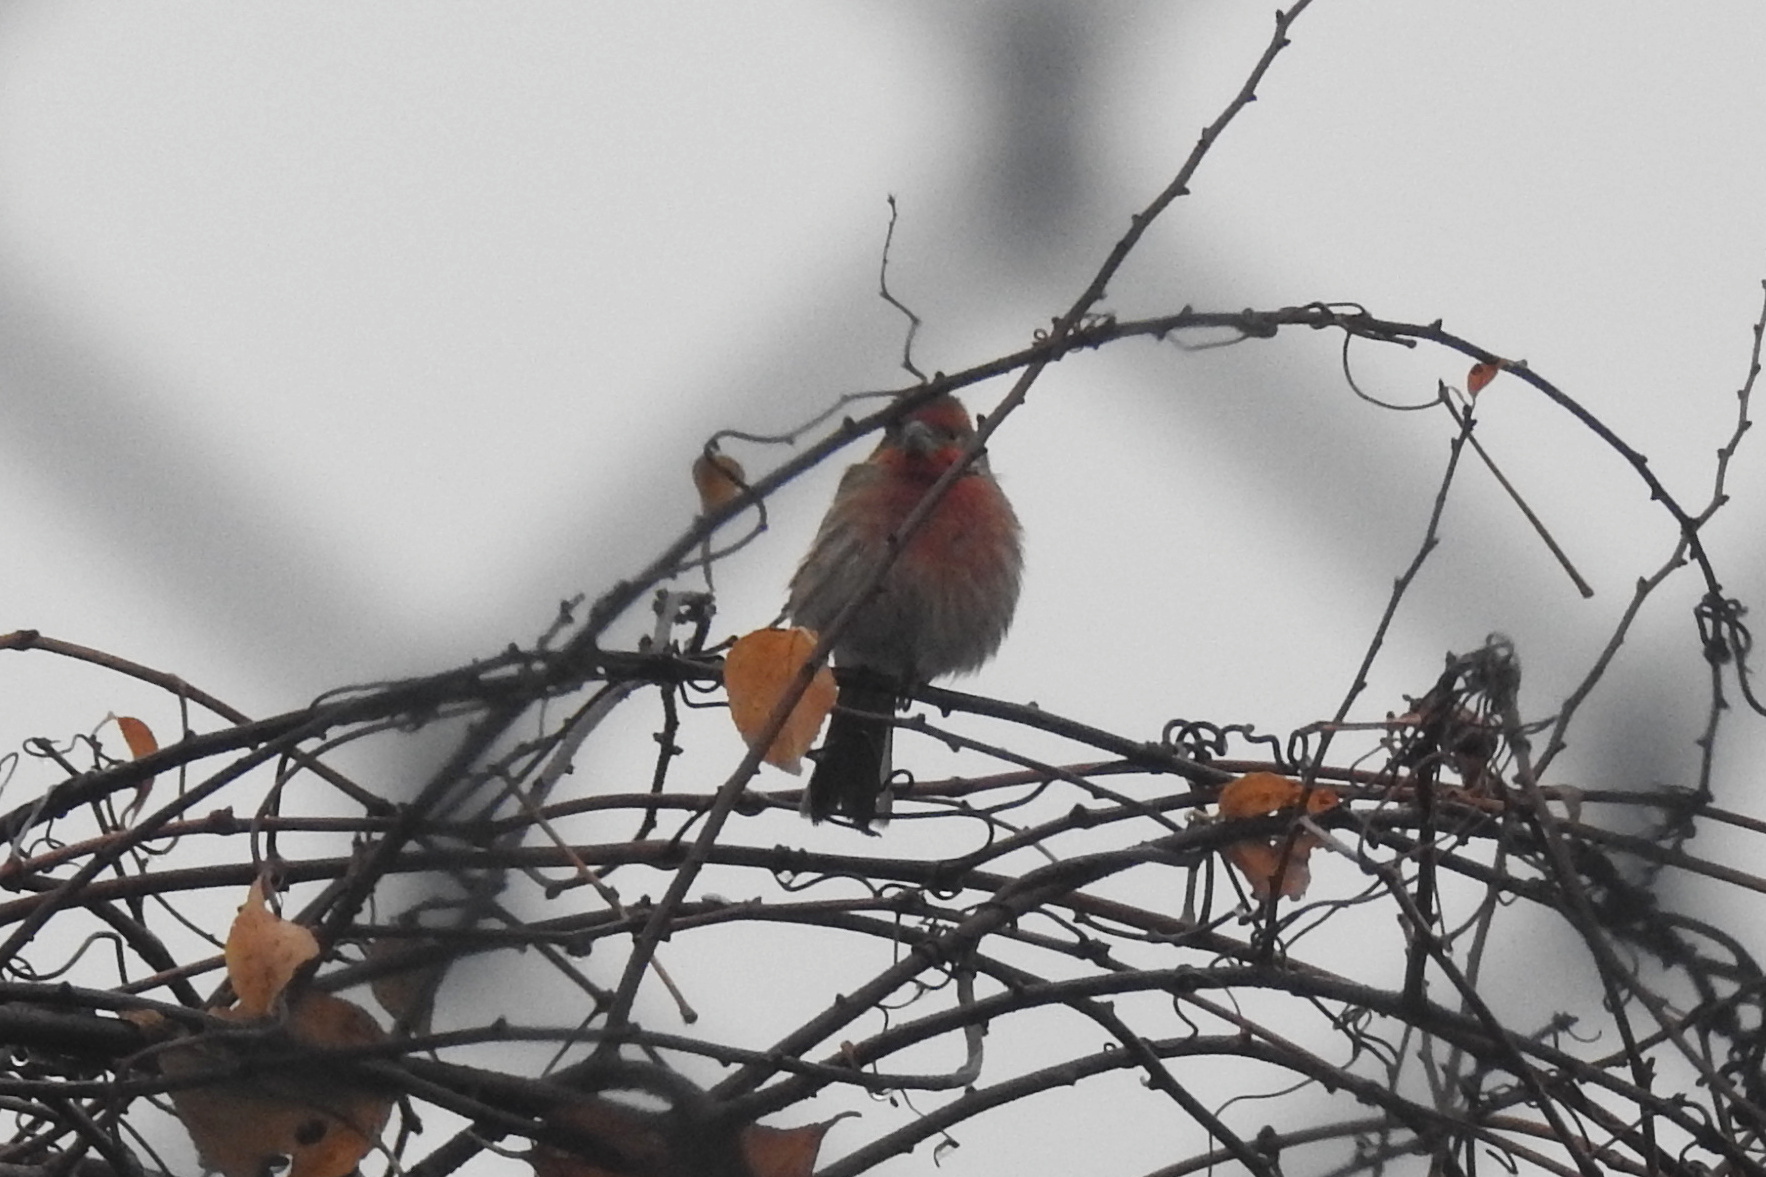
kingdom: Animalia
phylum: Chordata
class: Aves
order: Passeriformes
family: Fringillidae
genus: Haemorhous
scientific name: Haemorhous mexicanus
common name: House finch
